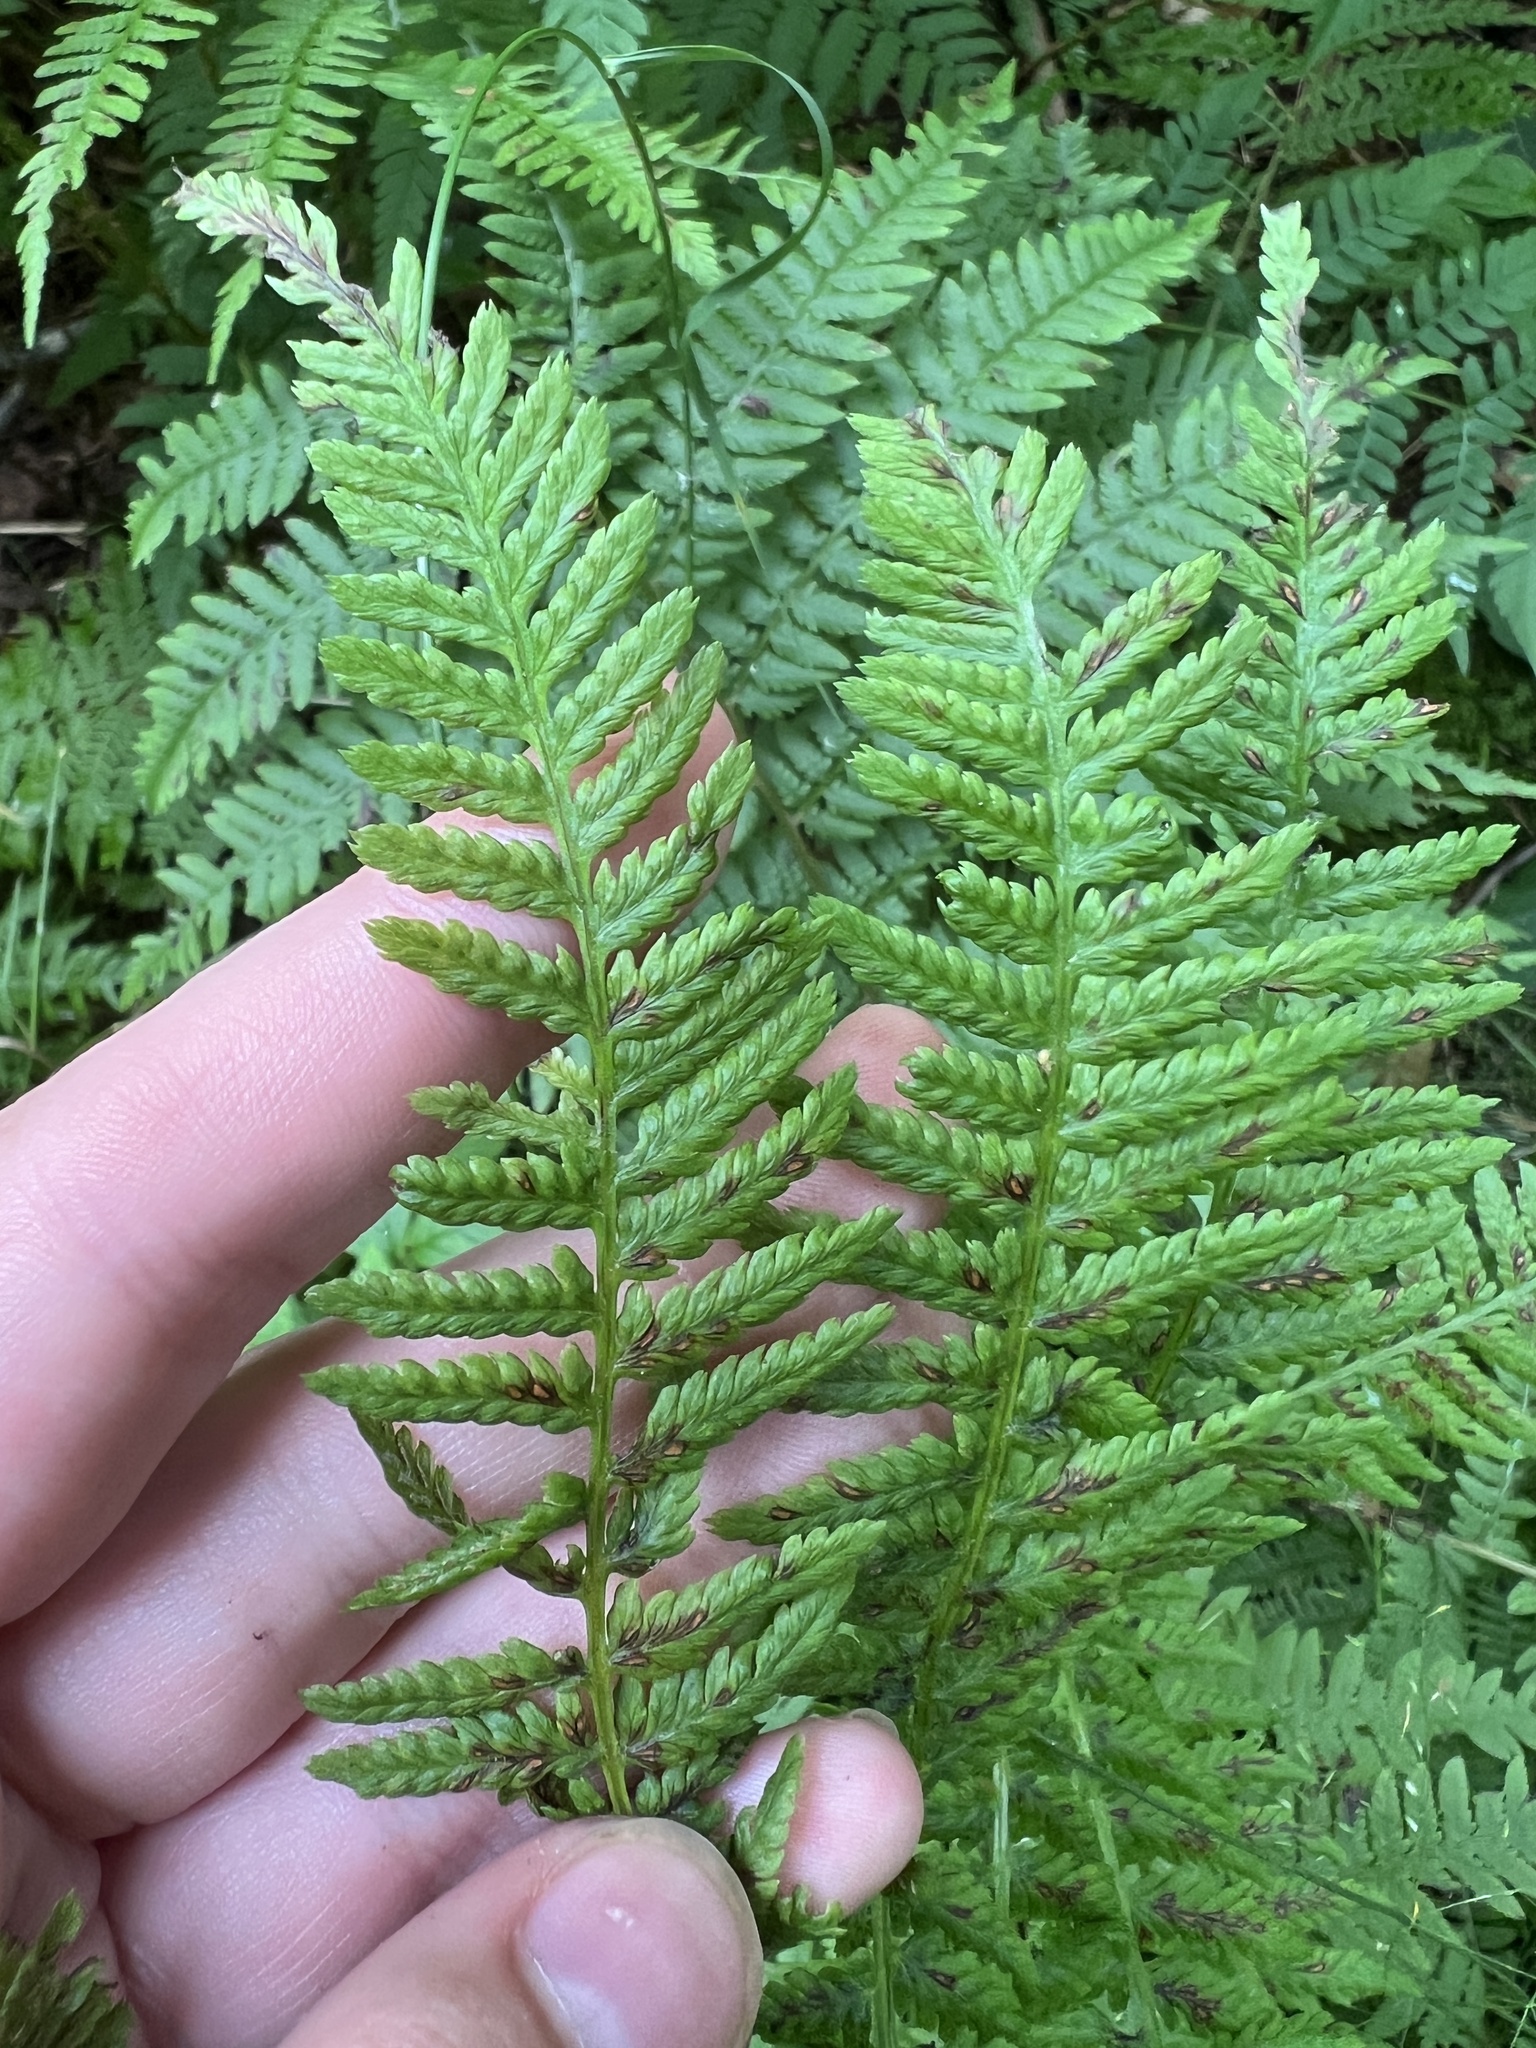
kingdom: Plantae
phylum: Tracheophyta
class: Polypodiopsida
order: Polypodiales
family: Athyriaceae
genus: Athyrium
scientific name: Athyrium angustum
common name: Northern lady fern
